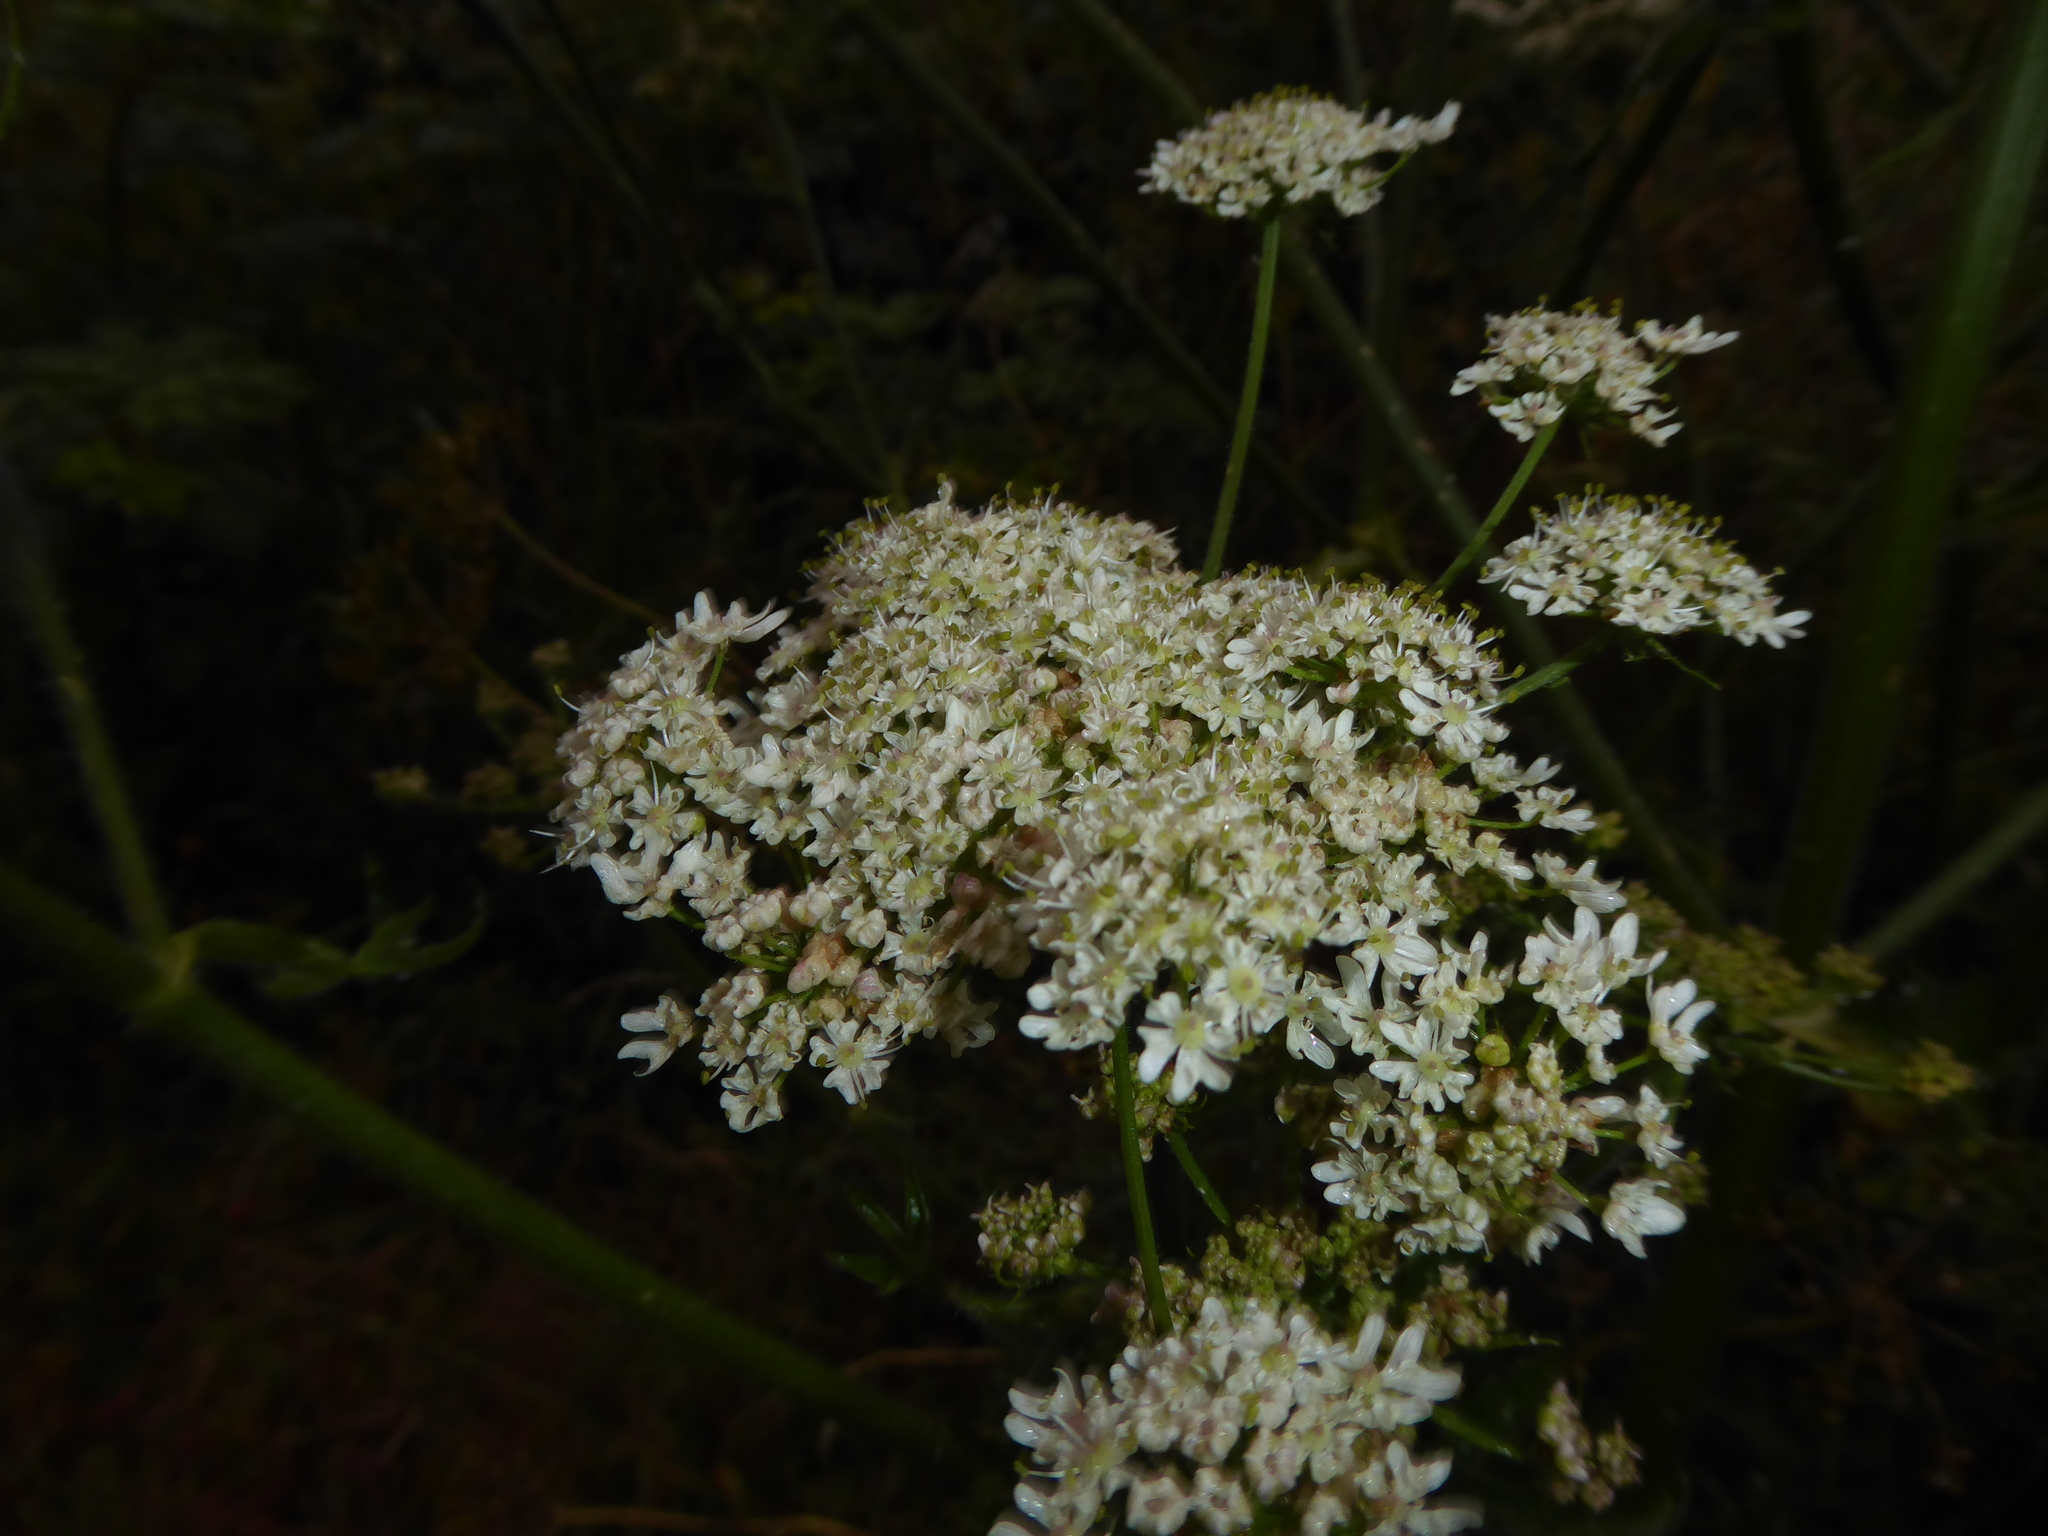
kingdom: Plantae
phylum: Tracheophyta
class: Magnoliopsida
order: Apiales
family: Apiaceae
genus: Heracleum
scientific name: Heracleum sphondylium
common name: Hogweed
